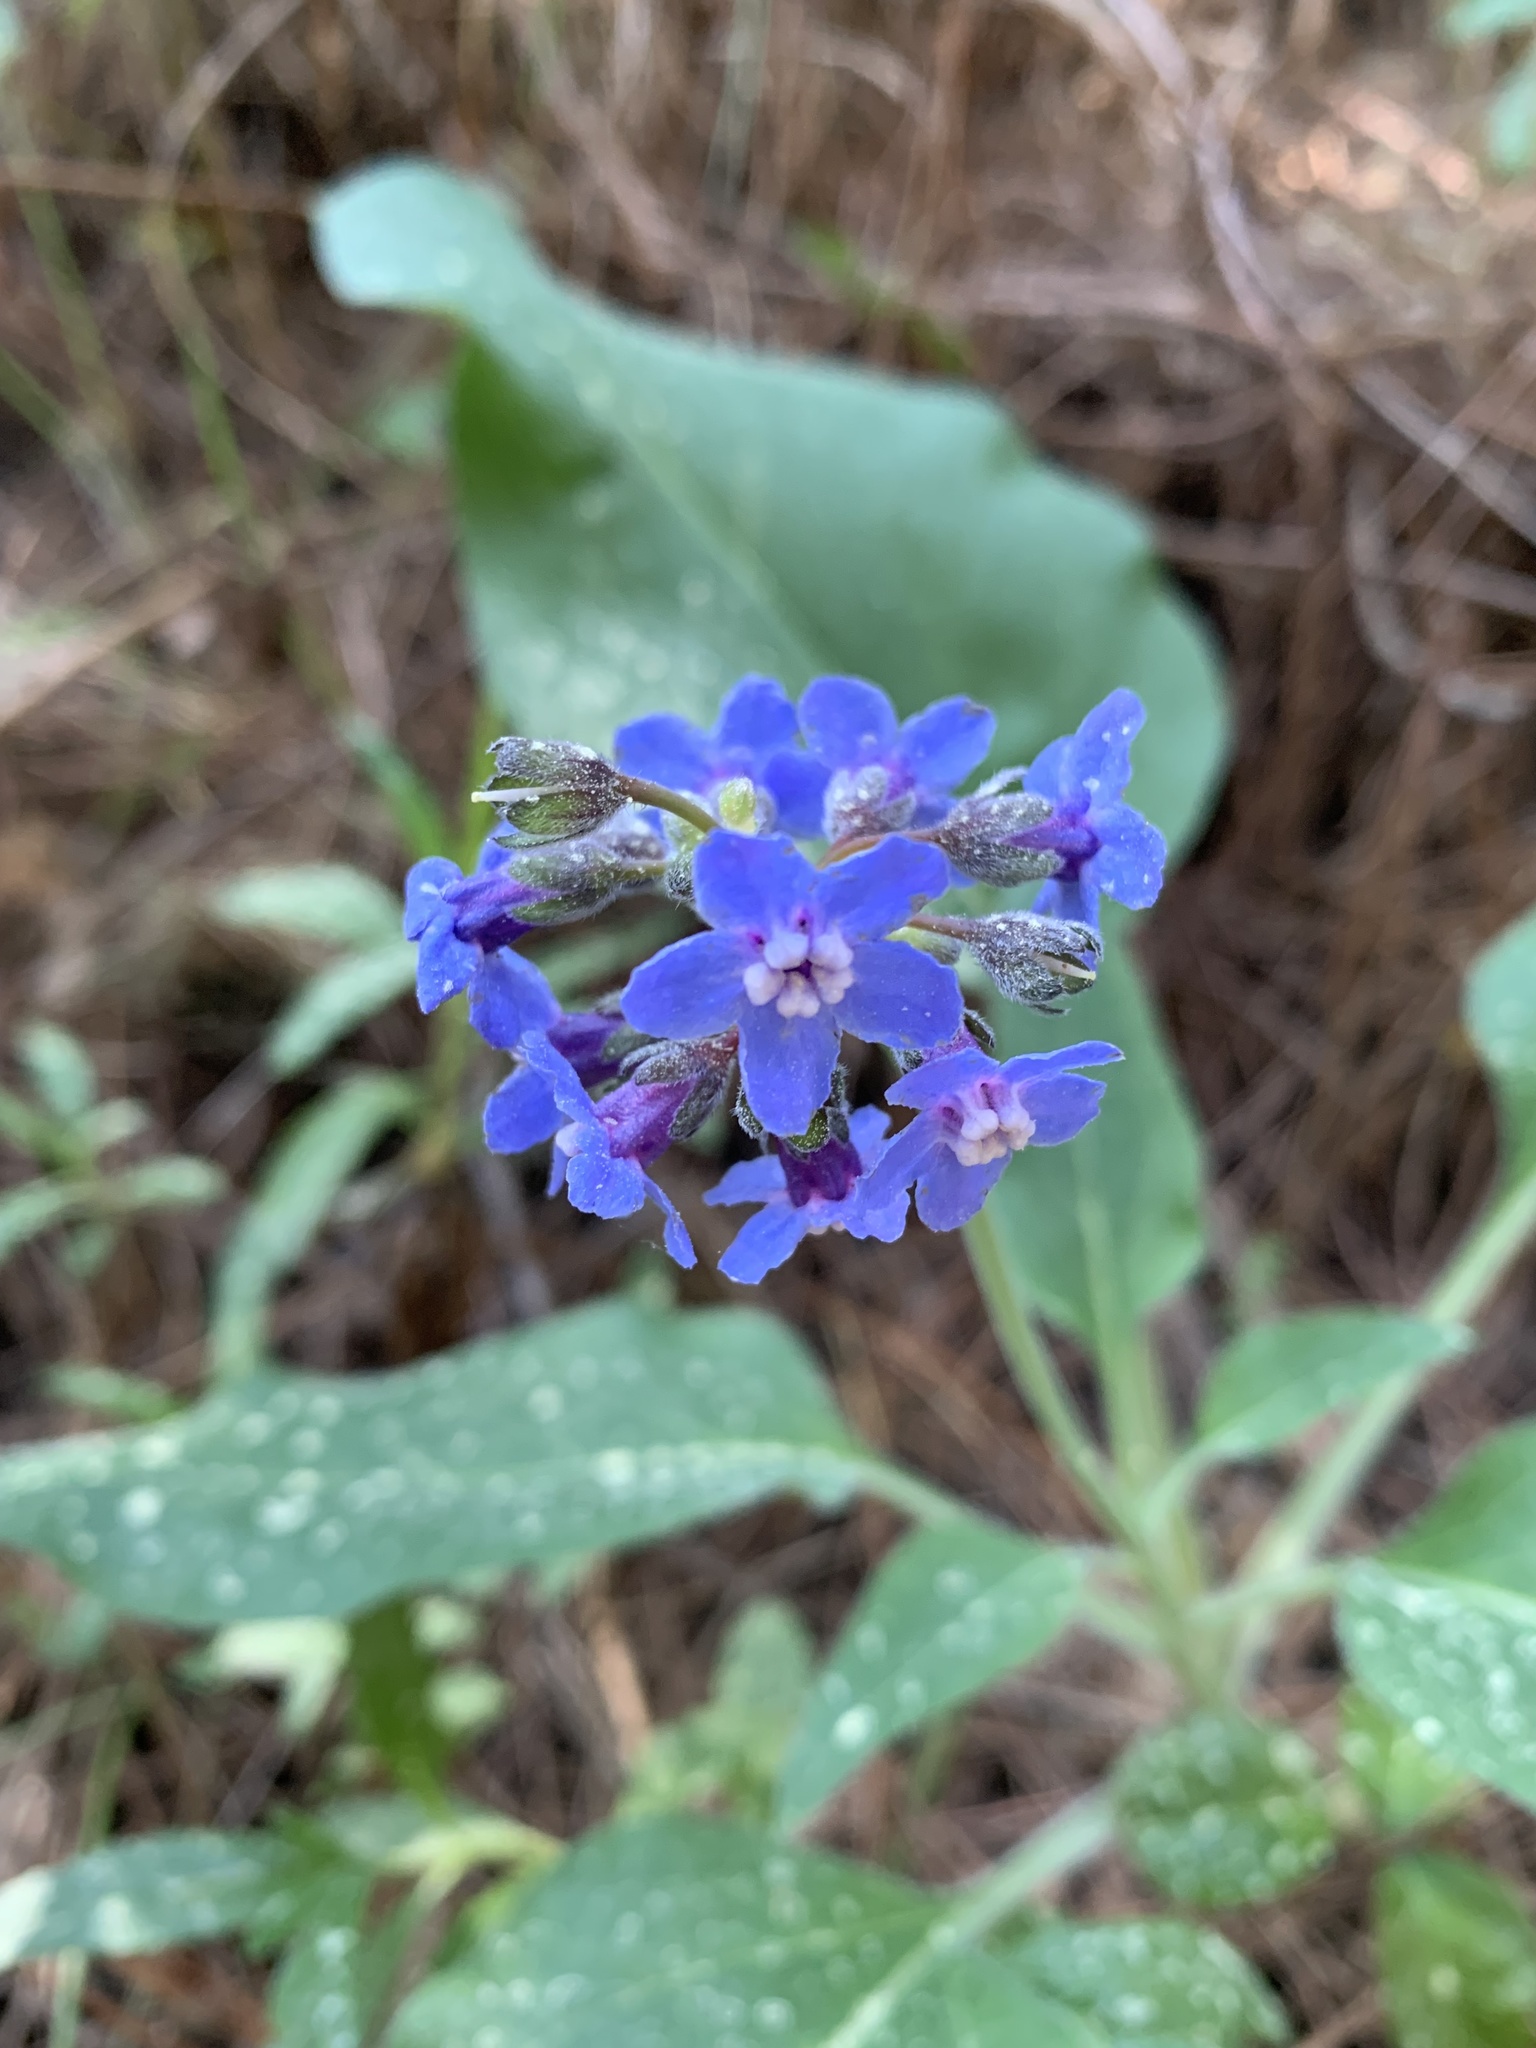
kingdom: Plantae
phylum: Tracheophyta
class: Magnoliopsida
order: Boraginales
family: Boraginaceae
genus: Adelinia
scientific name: Adelinia grande
